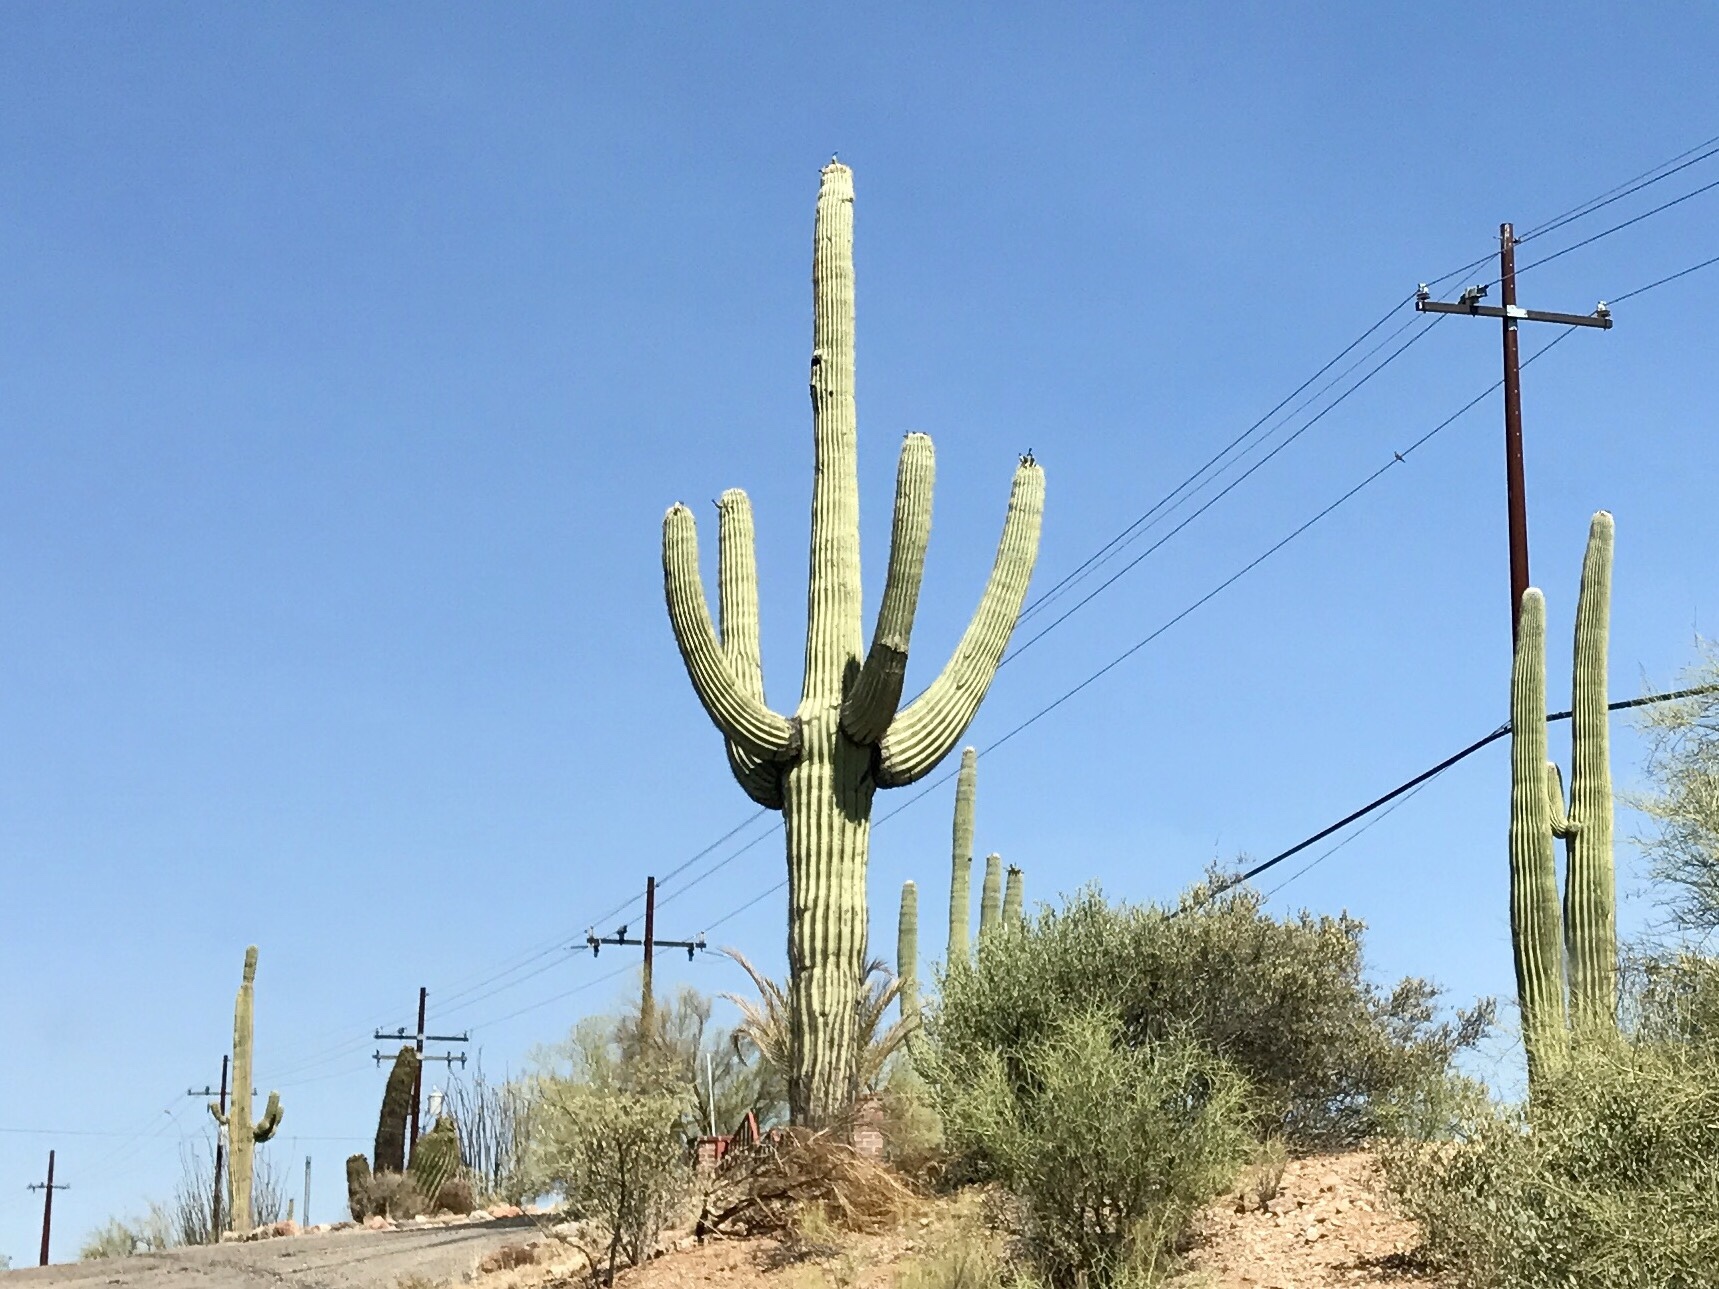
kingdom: Plantae
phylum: Tracheophyta
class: Magnoliopsida
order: Caryophyllales
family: Cactaceae
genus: Carnegiea
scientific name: Carnegiea gigantea
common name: Saguaro
